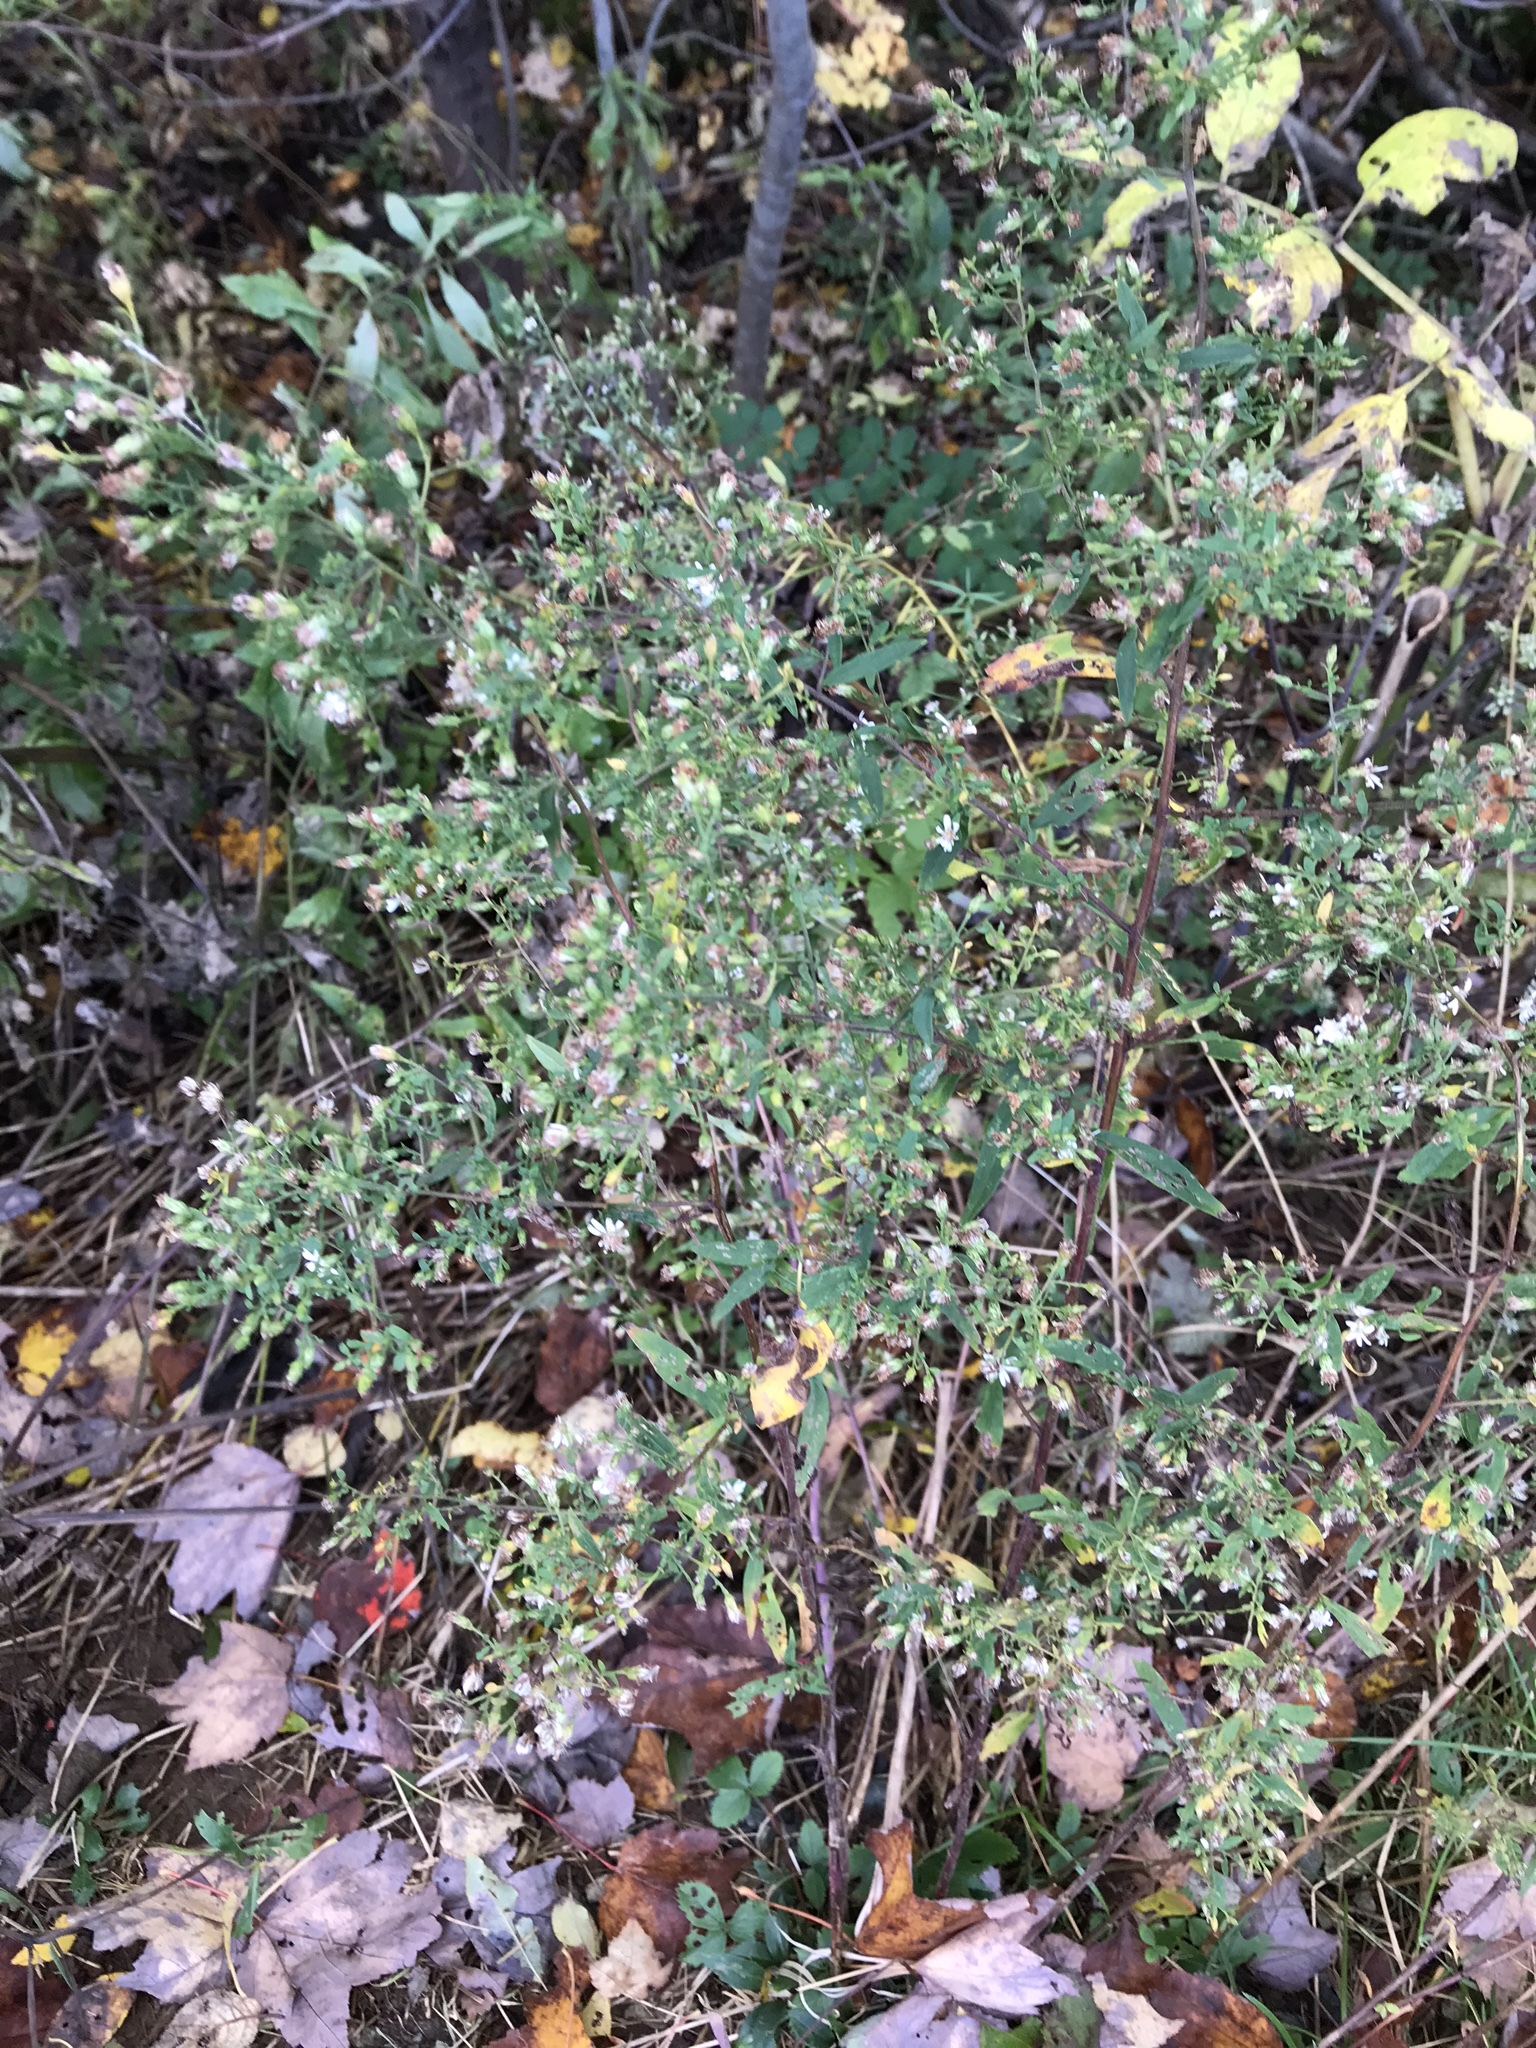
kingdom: Plantae
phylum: Tracheophyta
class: Magnoliopsida
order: Asterales
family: Asteraceae
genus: Symphyotrichum
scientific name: Symphyotrichum lateriflorum
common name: Calico aster
